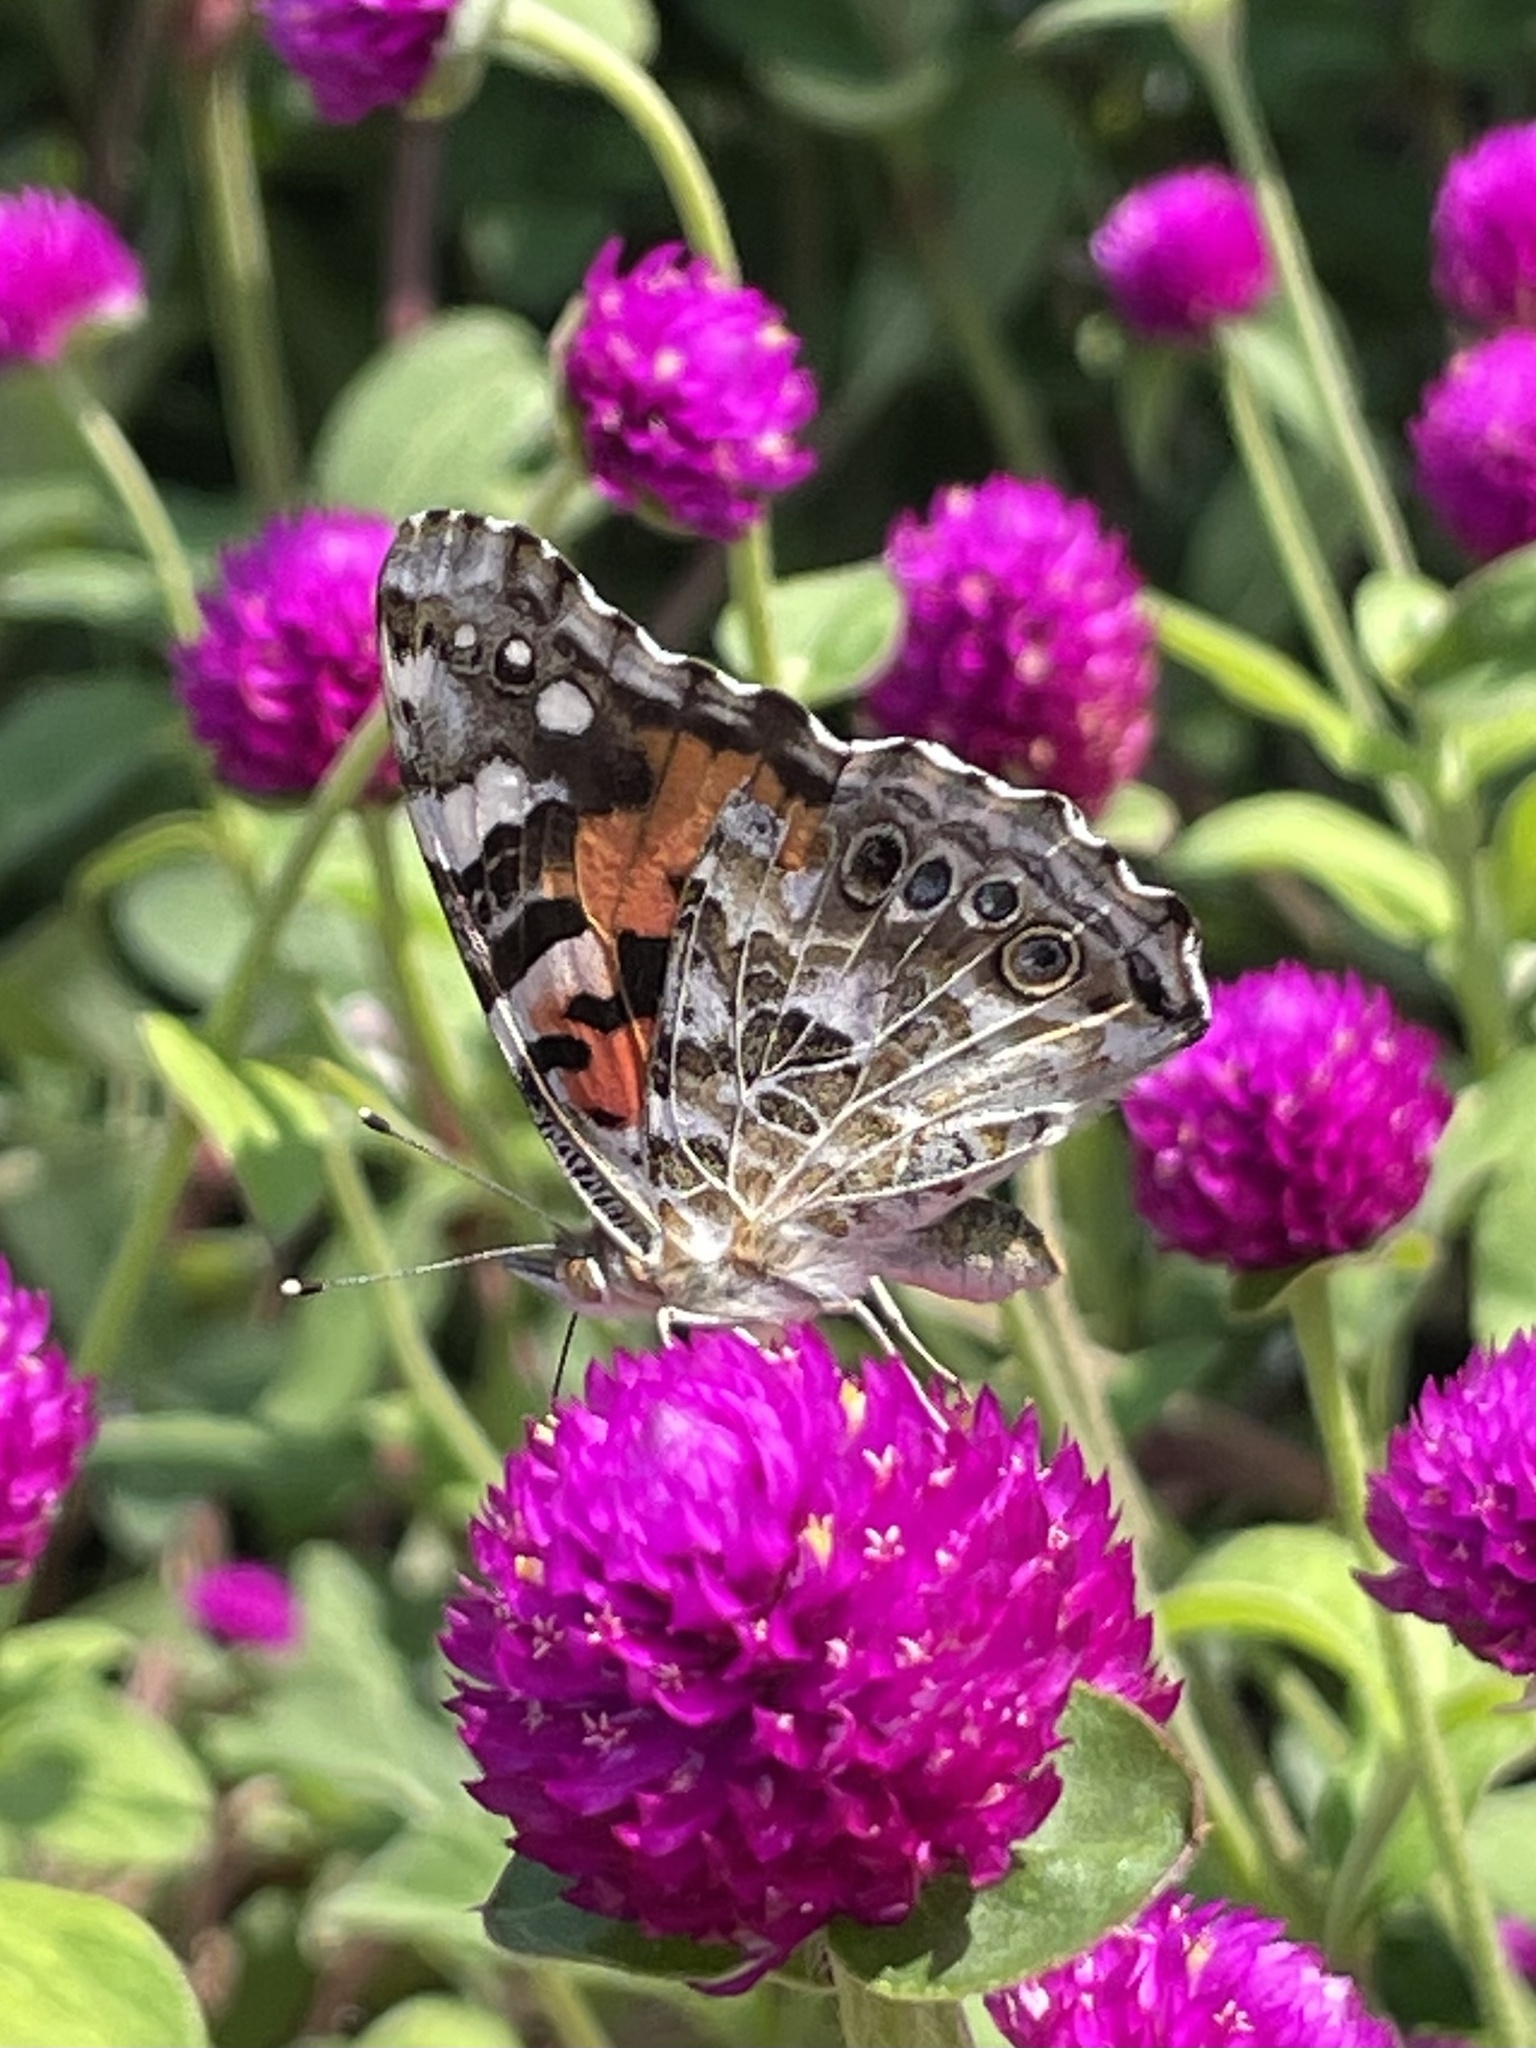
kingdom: Animalia
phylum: Arthropoda
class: Insecta
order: Lepidoptera
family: Nymphalidae
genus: Vanessa
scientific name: Vanessa cardui
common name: Painted lady
